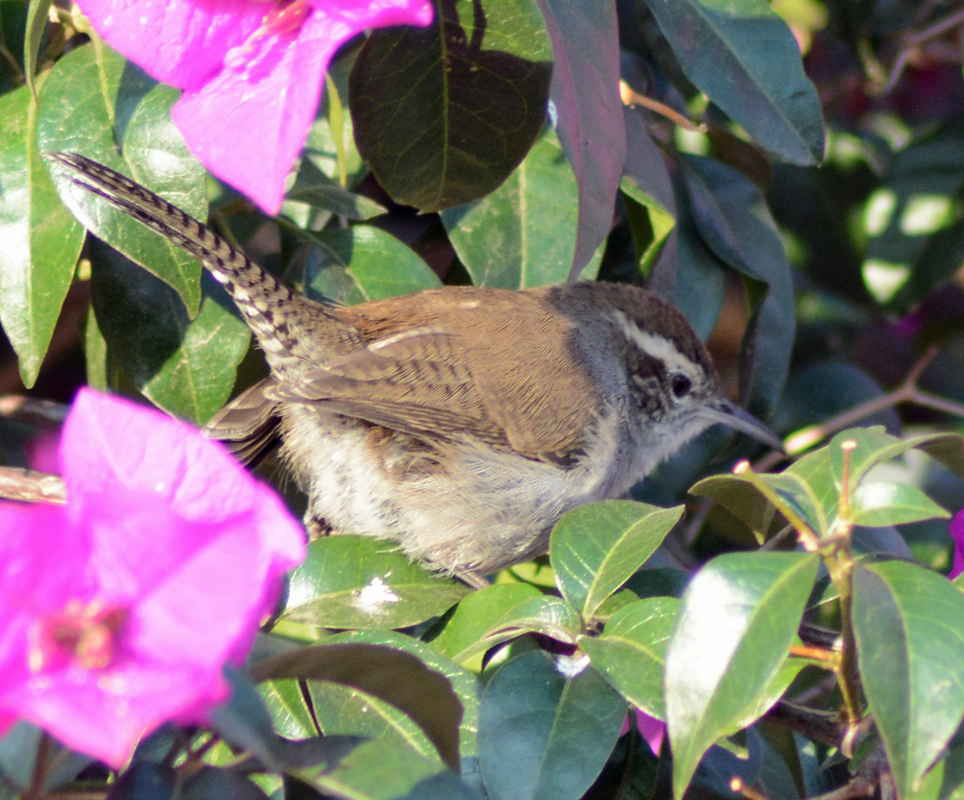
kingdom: Animalia
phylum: Chordata
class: Aves
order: Passeriformes
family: Troglodytidae
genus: Thryomanes
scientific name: Thryomanes bewickii
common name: Bewick's wren
